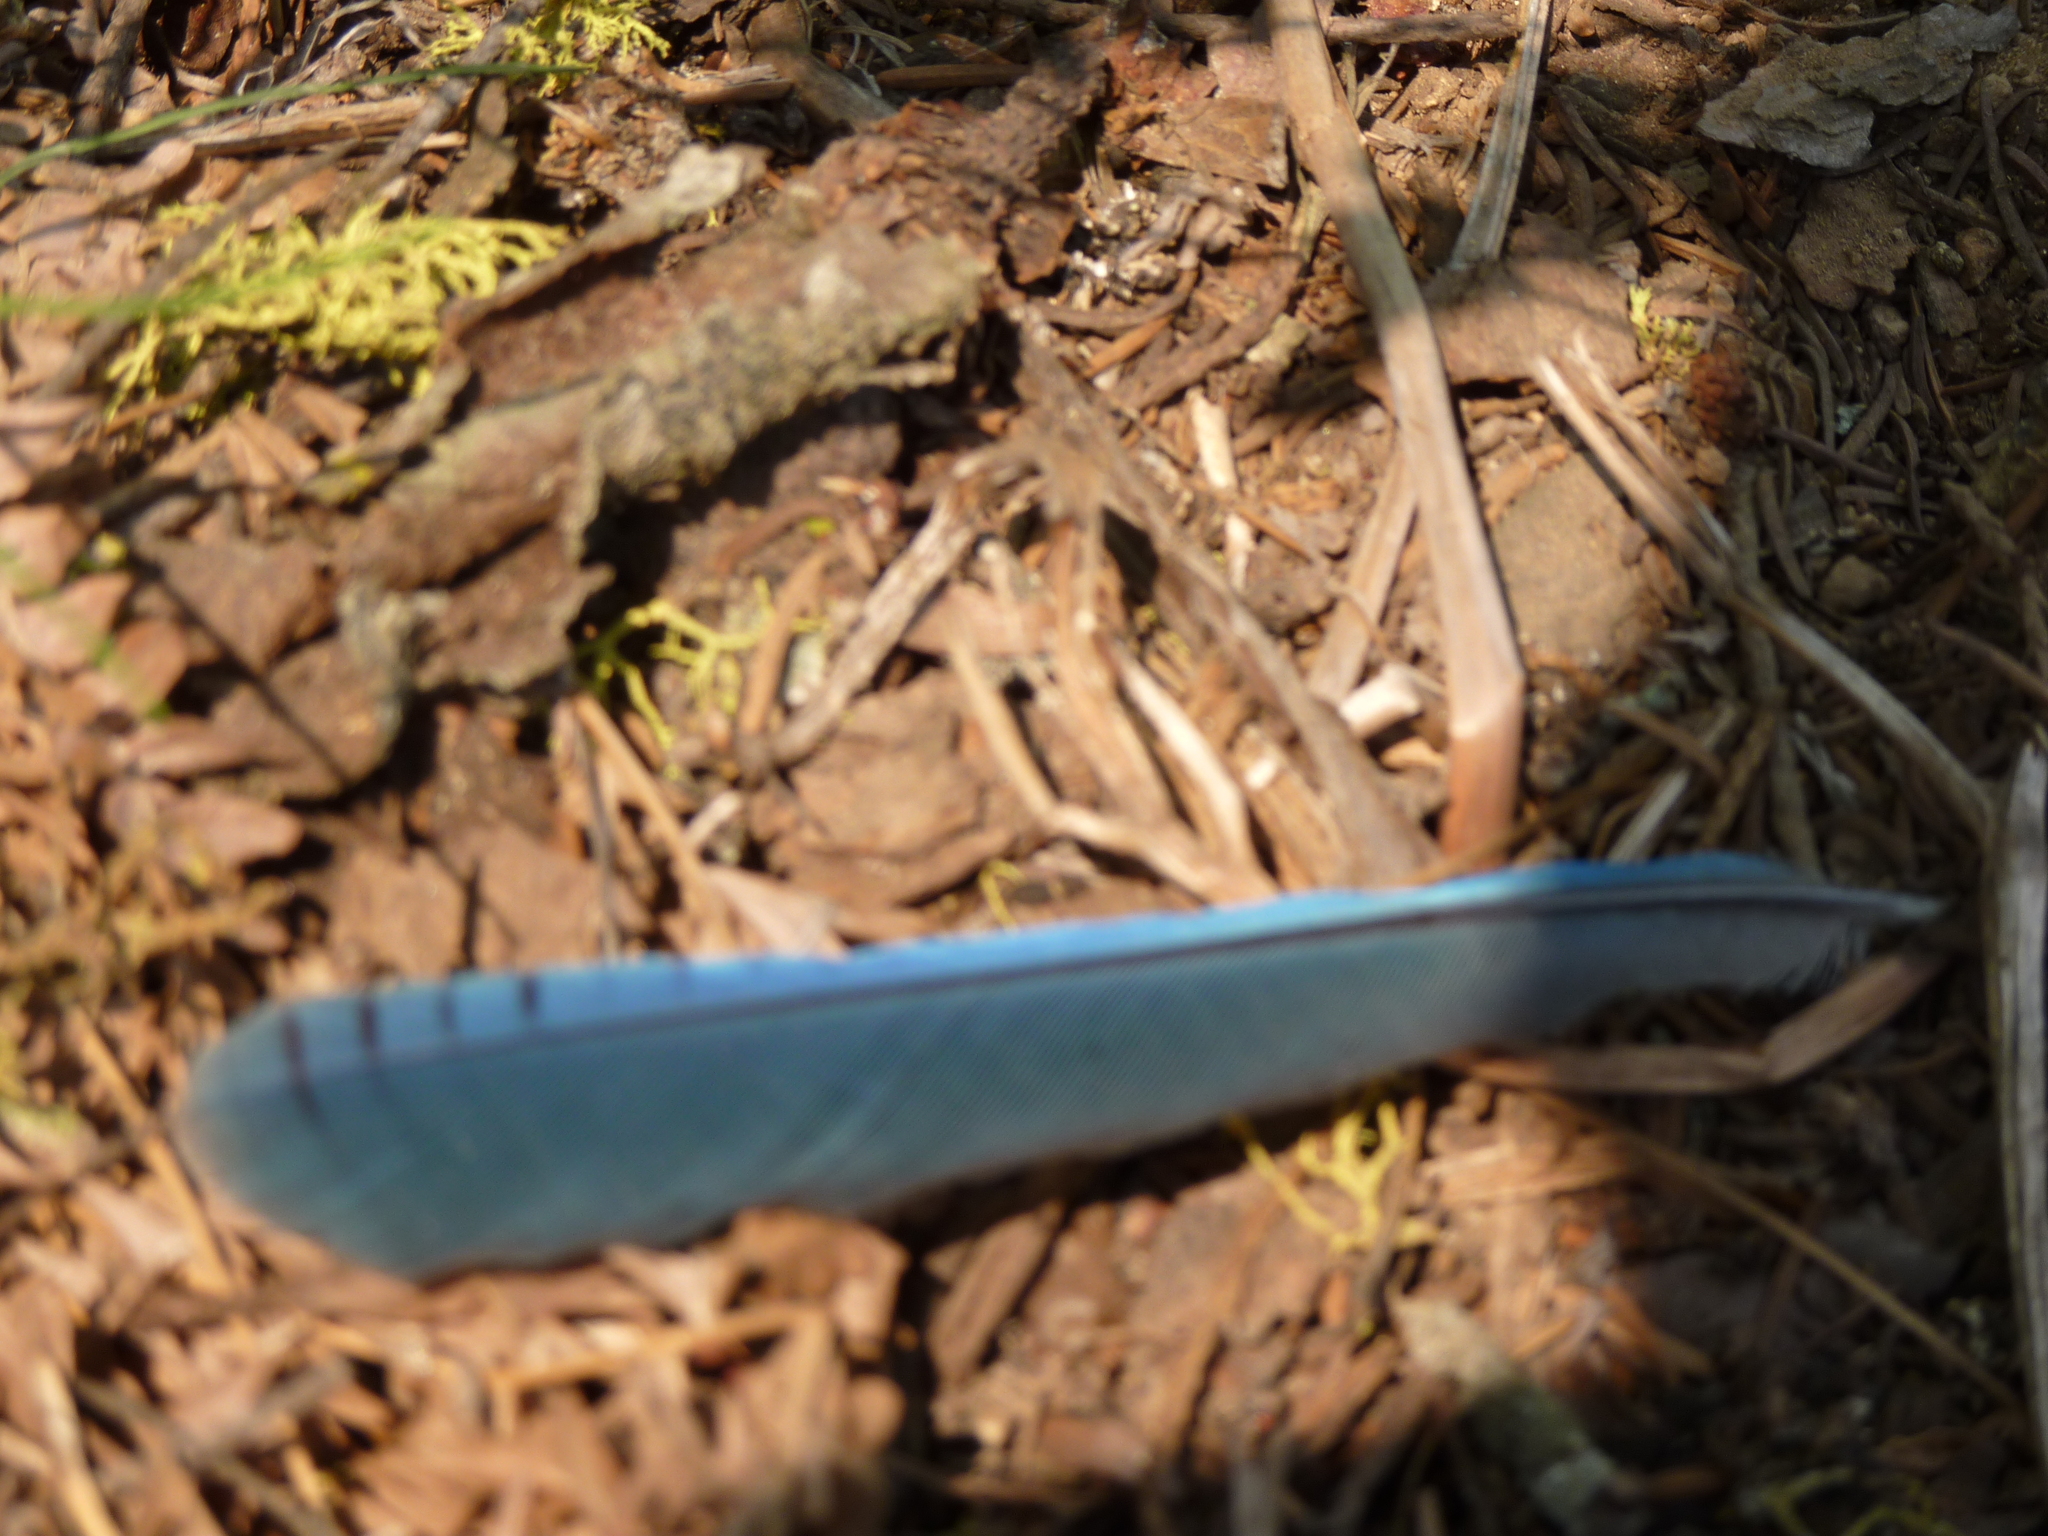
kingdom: Animalia
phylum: Chordata
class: Aves
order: Passeriformes
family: Corvidae
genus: Cyanocitta
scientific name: Cyanocitta stelleri
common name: Steller's jay
